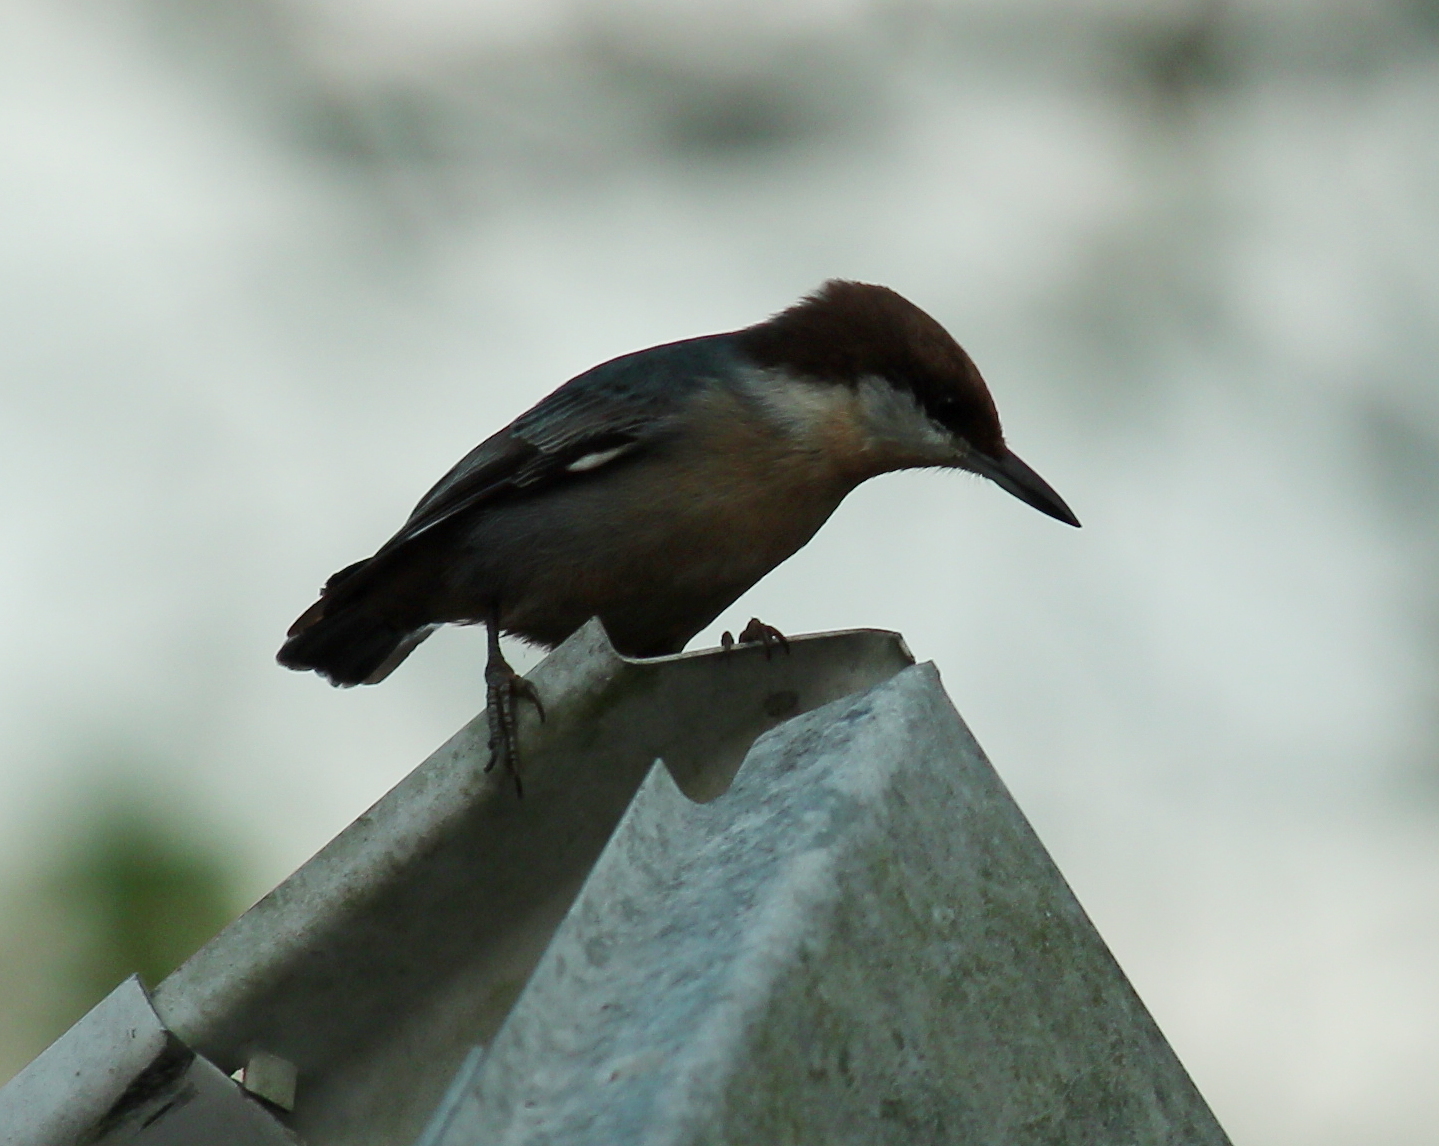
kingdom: Animalia
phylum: Chordata
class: Aves
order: Passeriformes
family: Sittidae
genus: Sitta
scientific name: Sitta pusilla
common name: Brown-headed nuthatch
